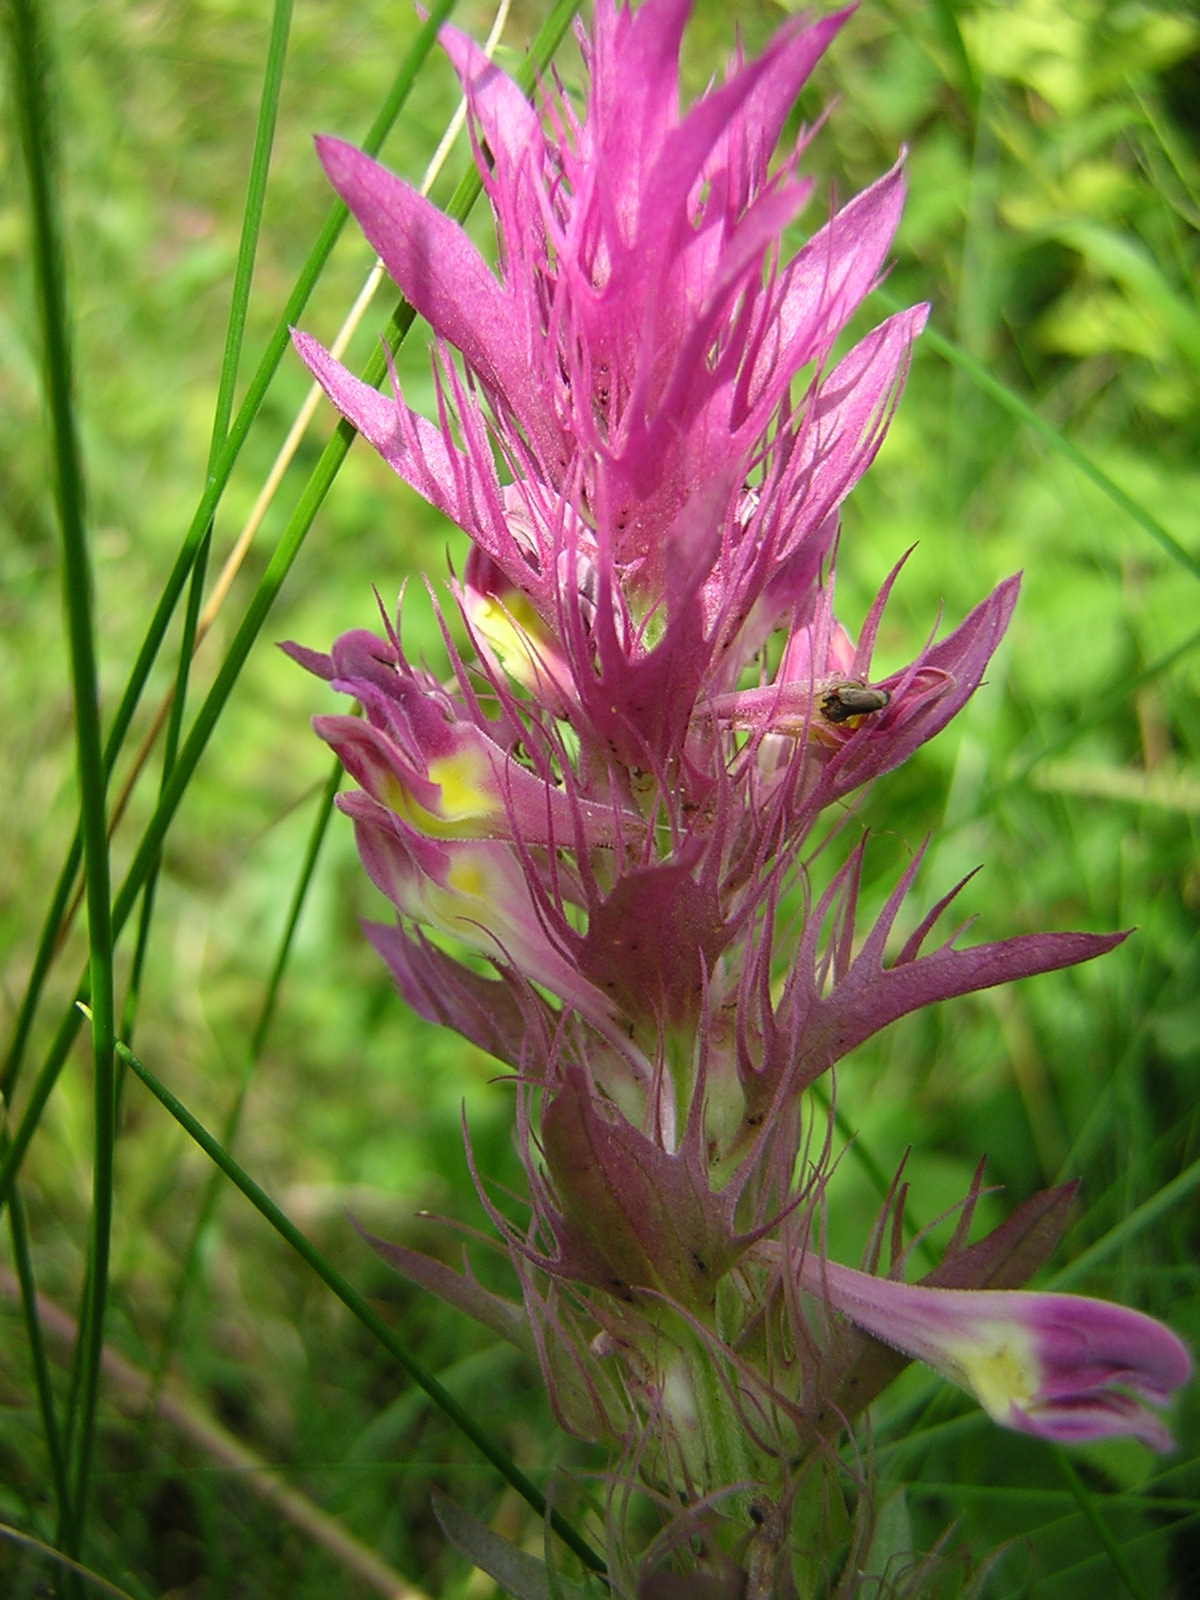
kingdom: Plantae
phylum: Tracheophyta
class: Magnoliopsida
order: Lamiales
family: Orobanchaceae
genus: Melampyrum
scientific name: Melampyrum arvense
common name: Field cow-wheat
